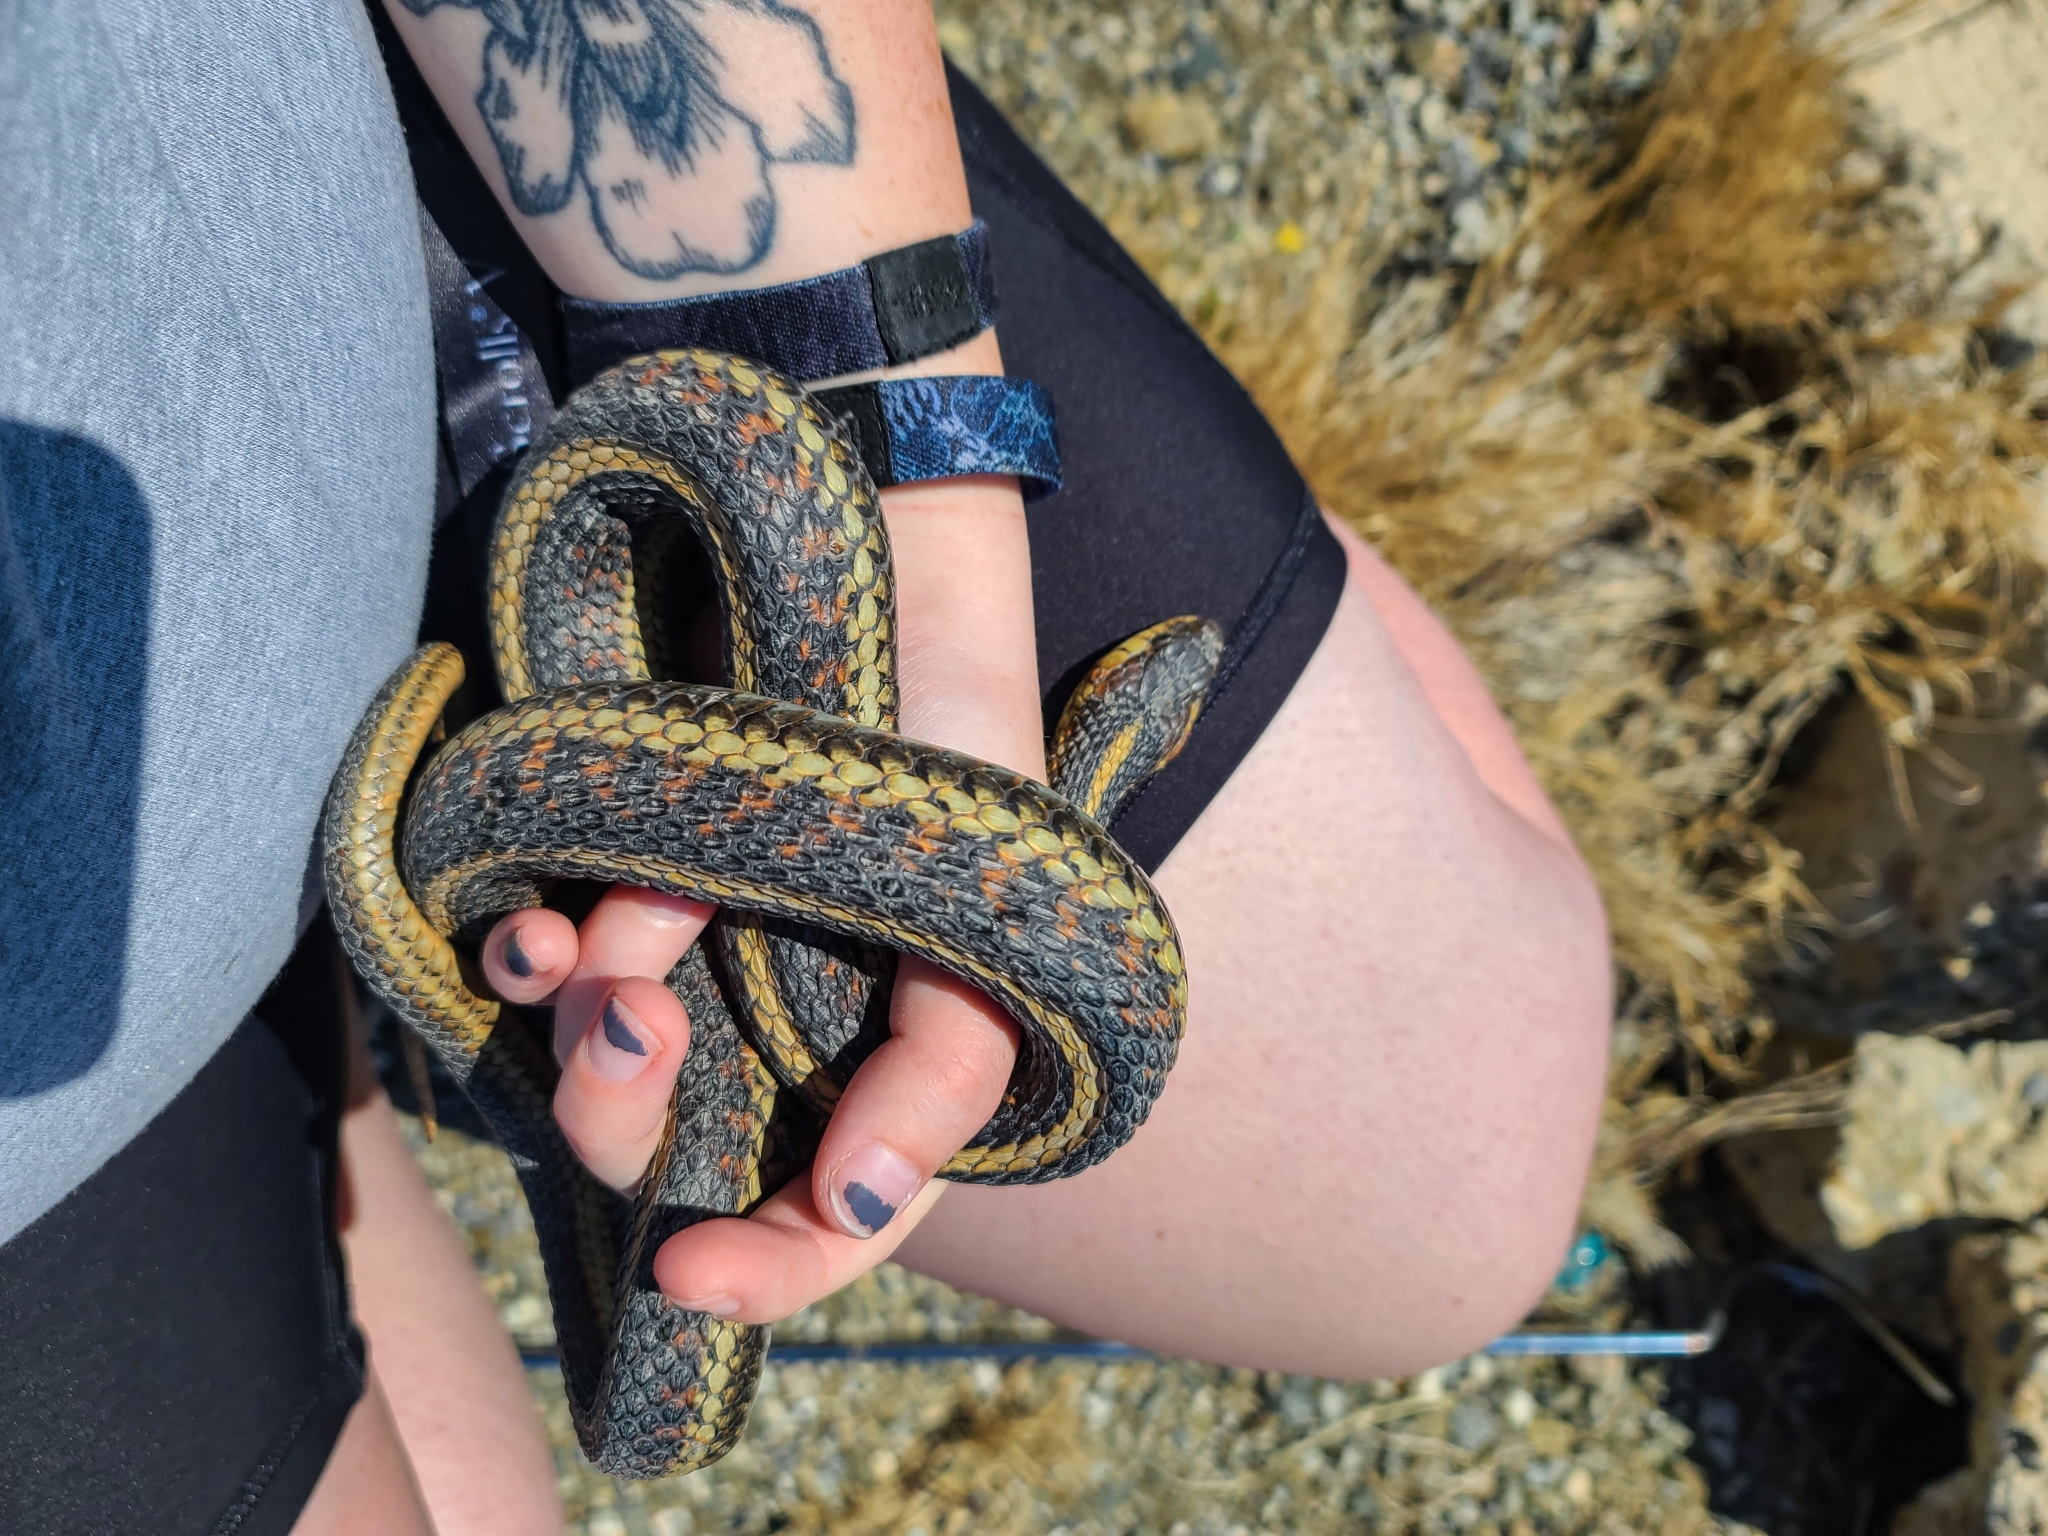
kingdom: Animalia
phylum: Chordata
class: Squamata
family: Colubridae
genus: Thamnophis
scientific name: Thamnophis sirtalis
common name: Common garter snake
